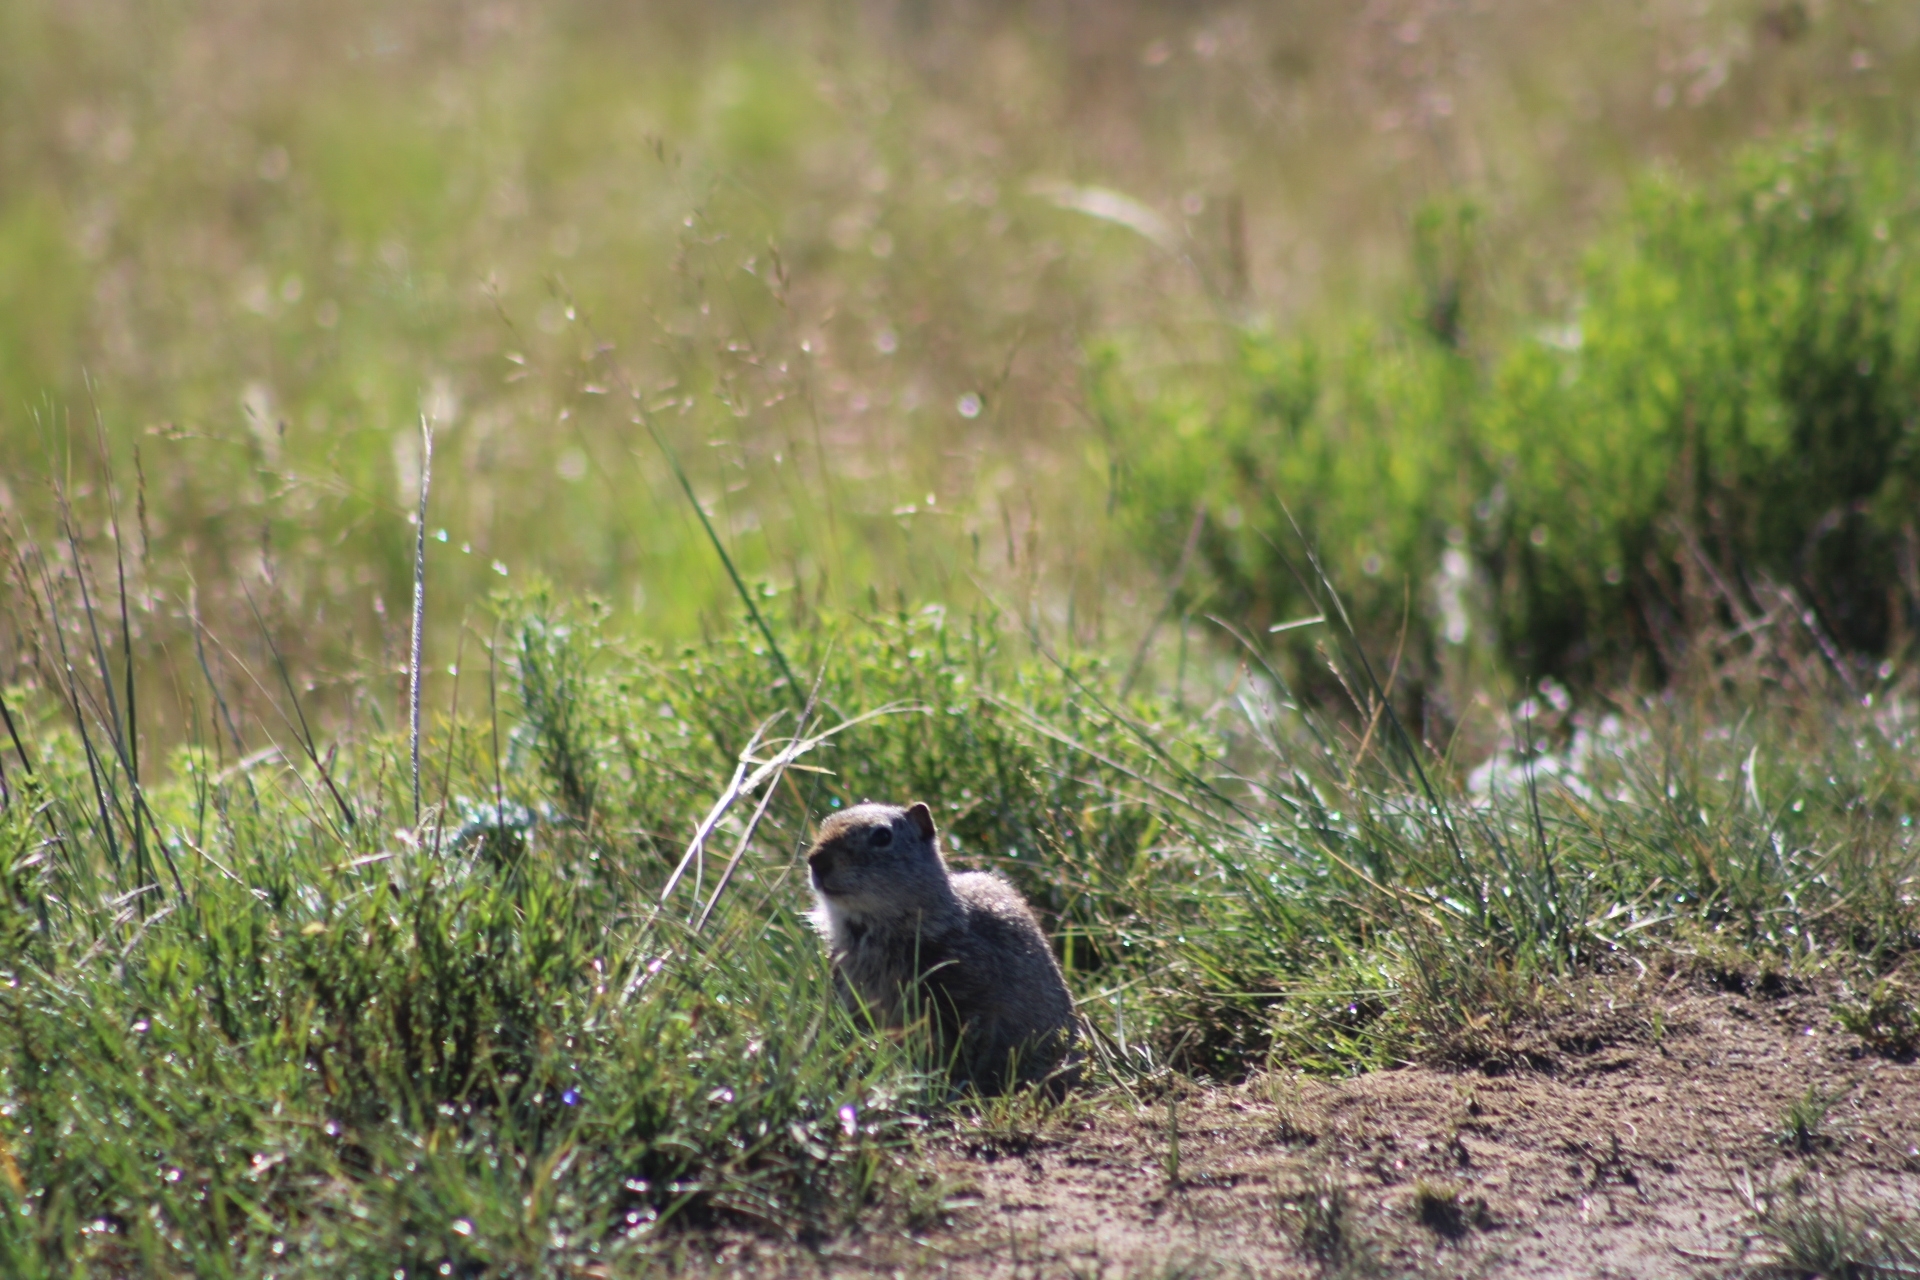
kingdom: Animalia
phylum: Chordata
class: Mammalia
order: Rodentia
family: Sciuridae
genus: Urocitellus
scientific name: Urocitellus armatus
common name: Uinta ground squirrel
